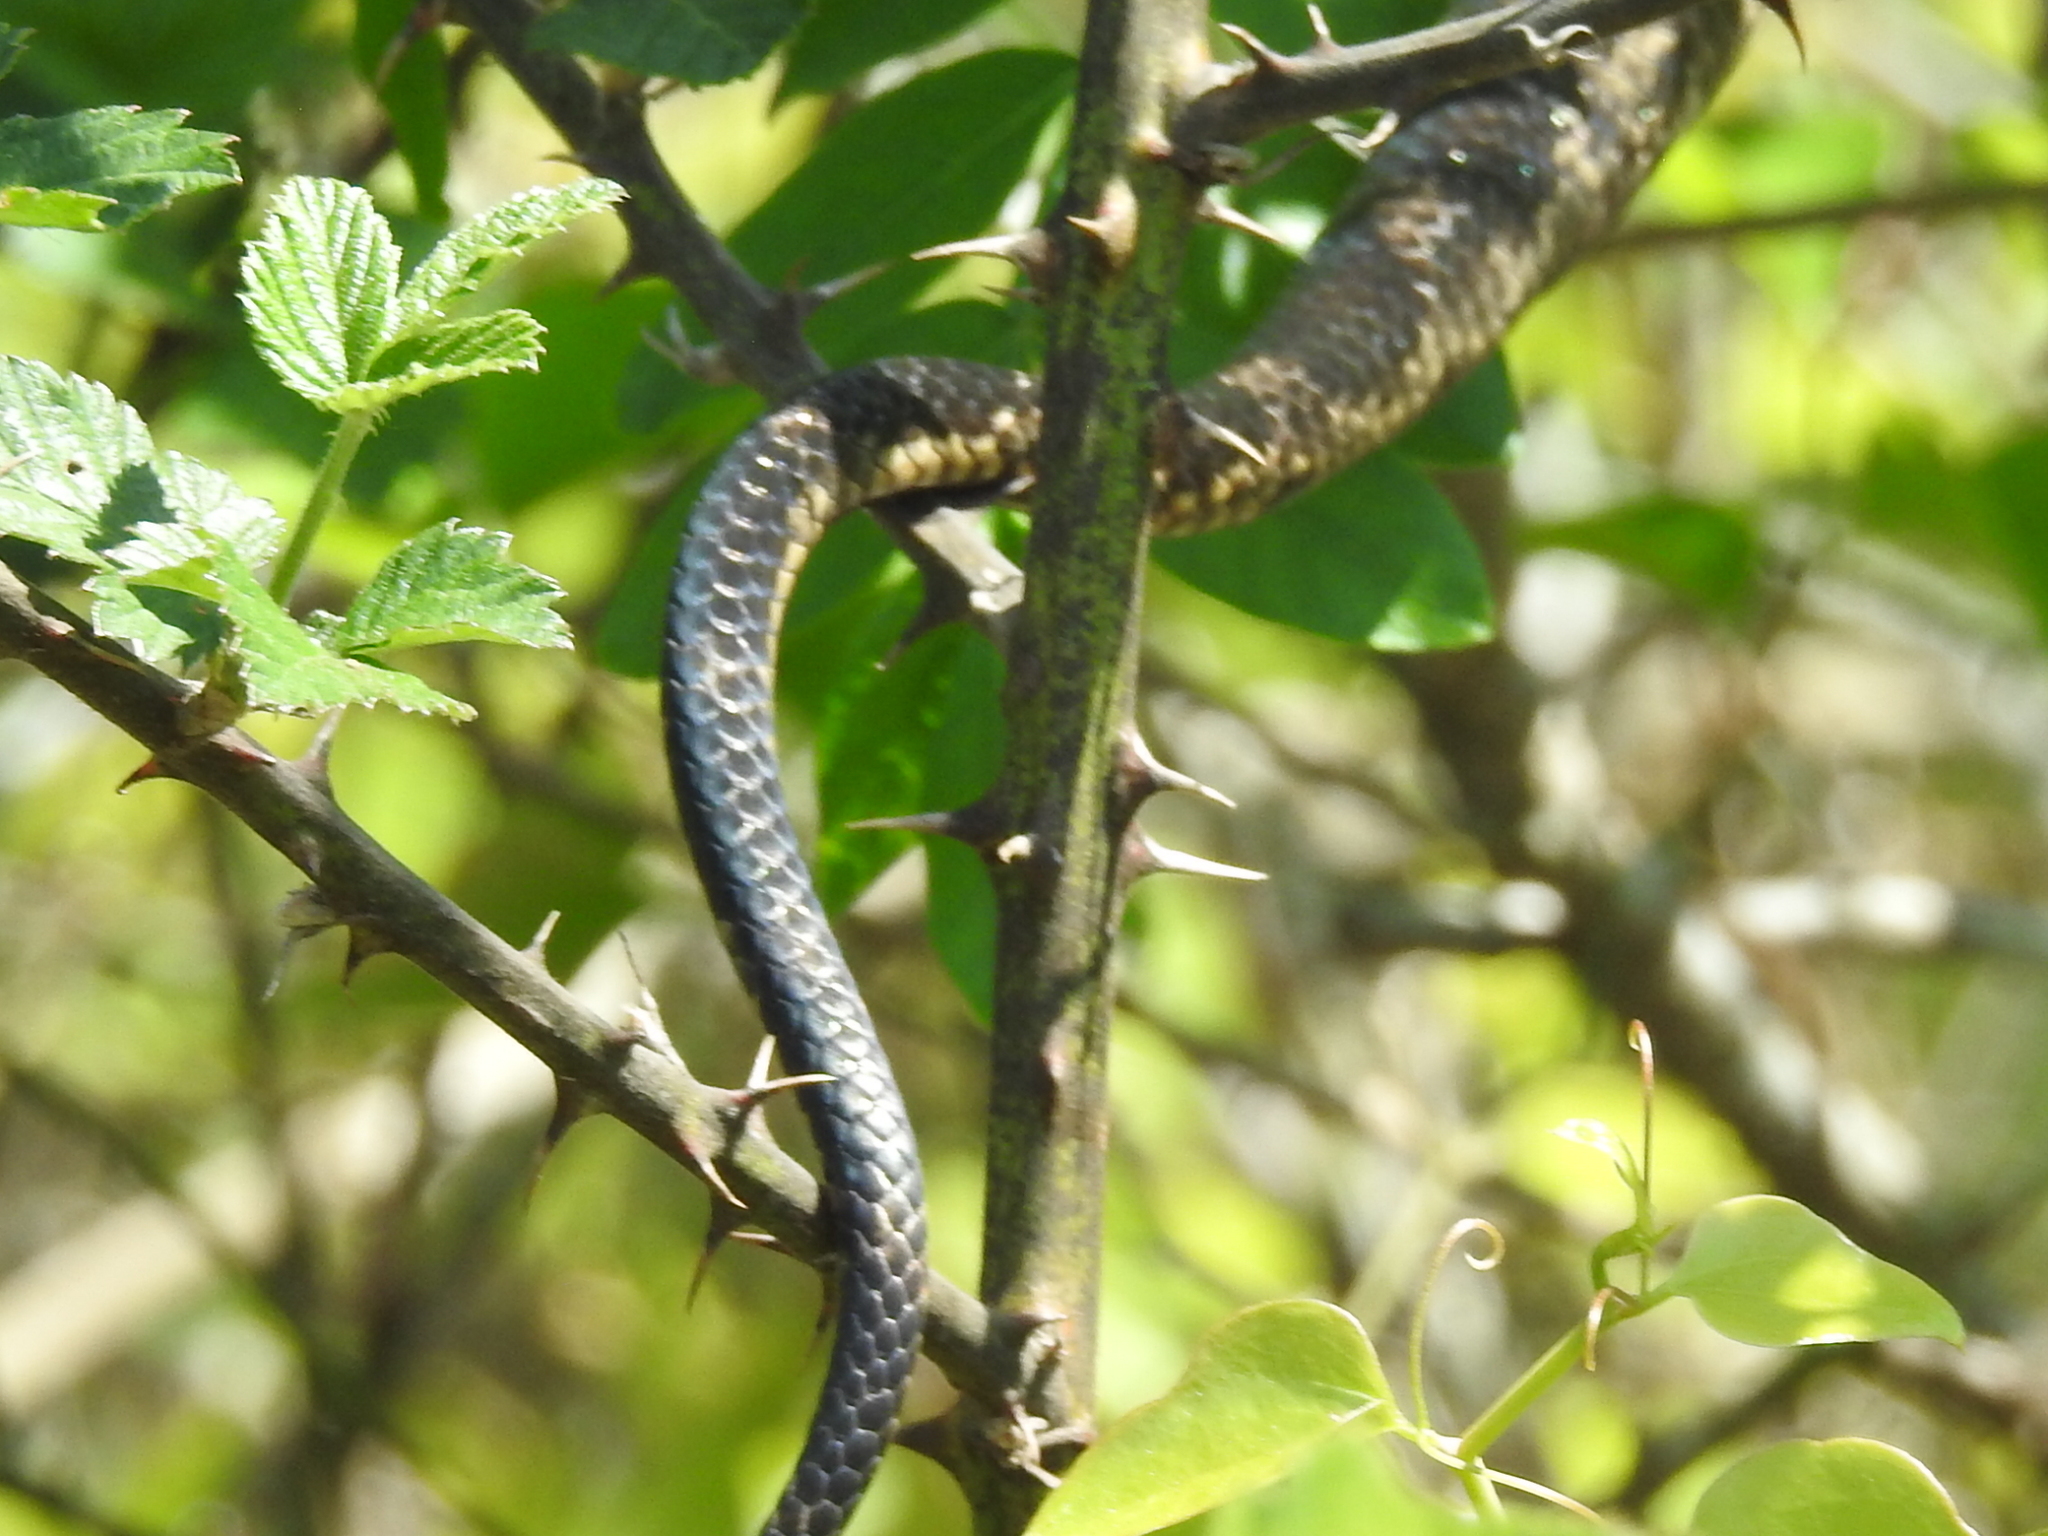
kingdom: Animalia
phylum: Chordata
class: Squamata
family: Colubridae
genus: Pantherophis
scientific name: Pantherophis obsoletus
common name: Black rat snake
